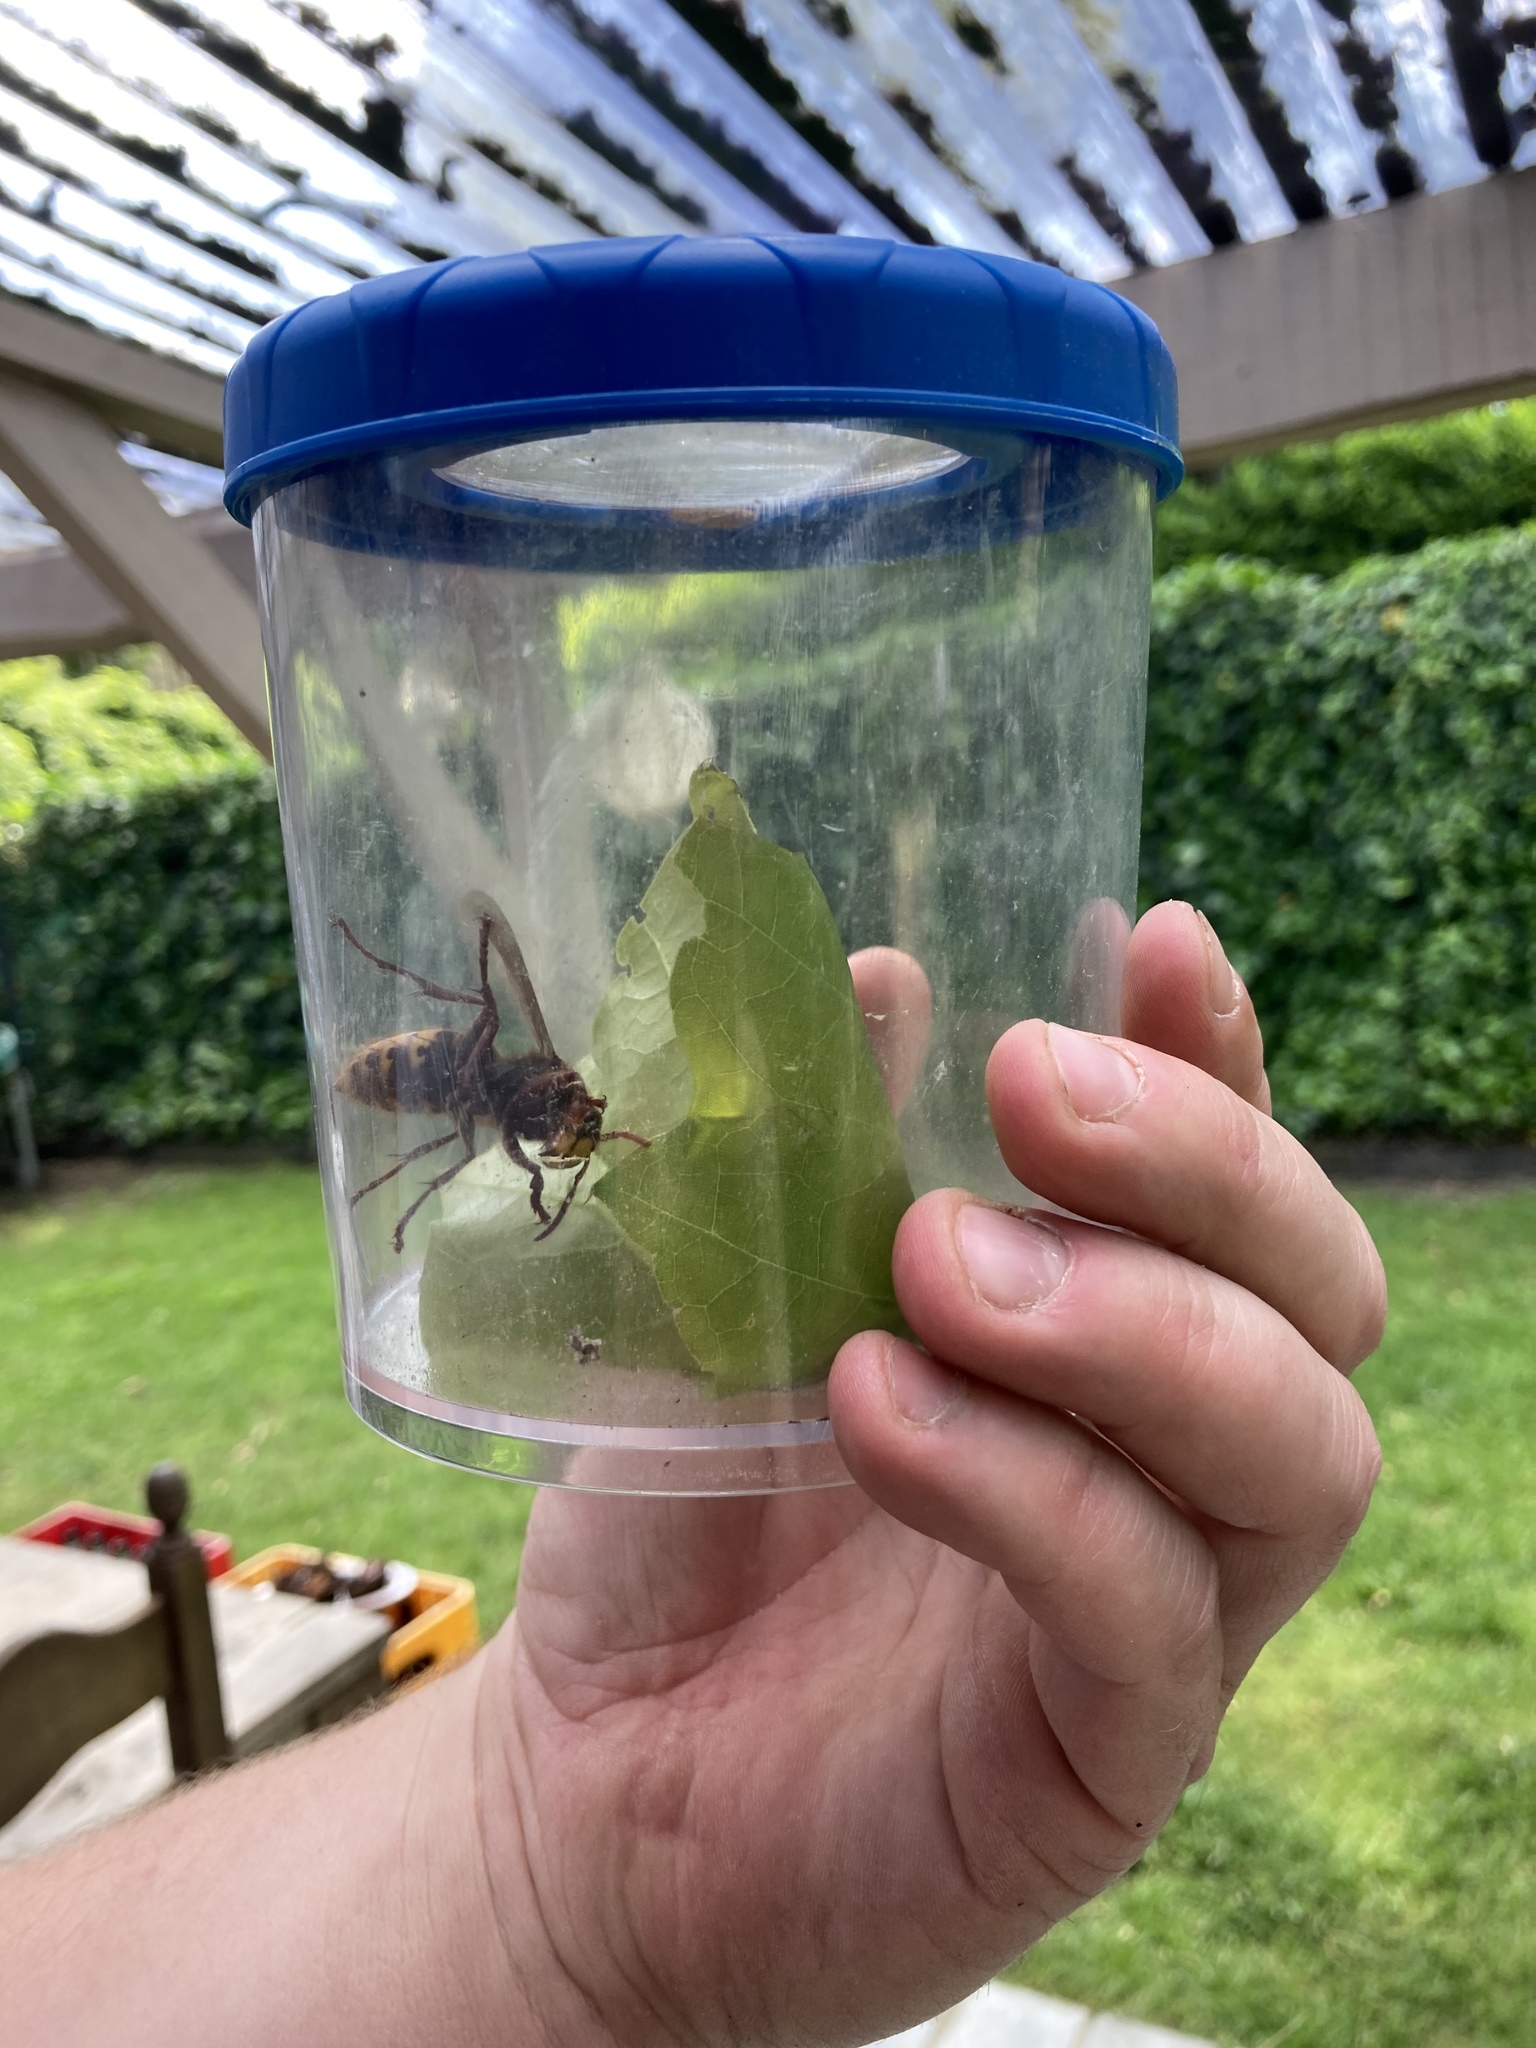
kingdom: Animalia
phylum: Arthropoda
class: Insecta
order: Hymenoptera
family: Vespidae
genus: Vespa
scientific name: Vespa crabro
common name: Hornet
